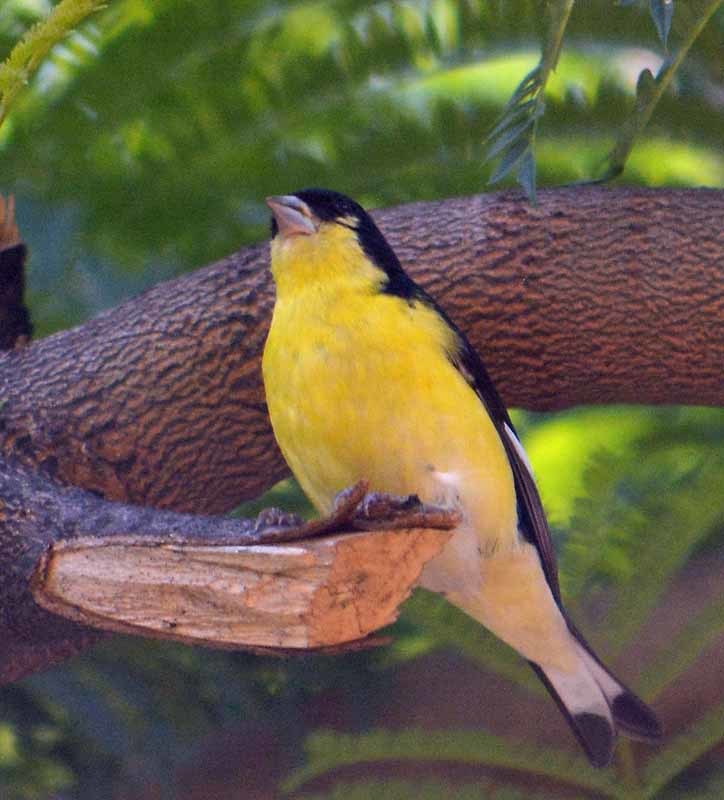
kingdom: Animalia
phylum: Chordata
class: Aves
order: Passeriformes
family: Fringillidae
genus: Spinus
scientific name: Spinus psaltria
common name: Lesser goldfinch
